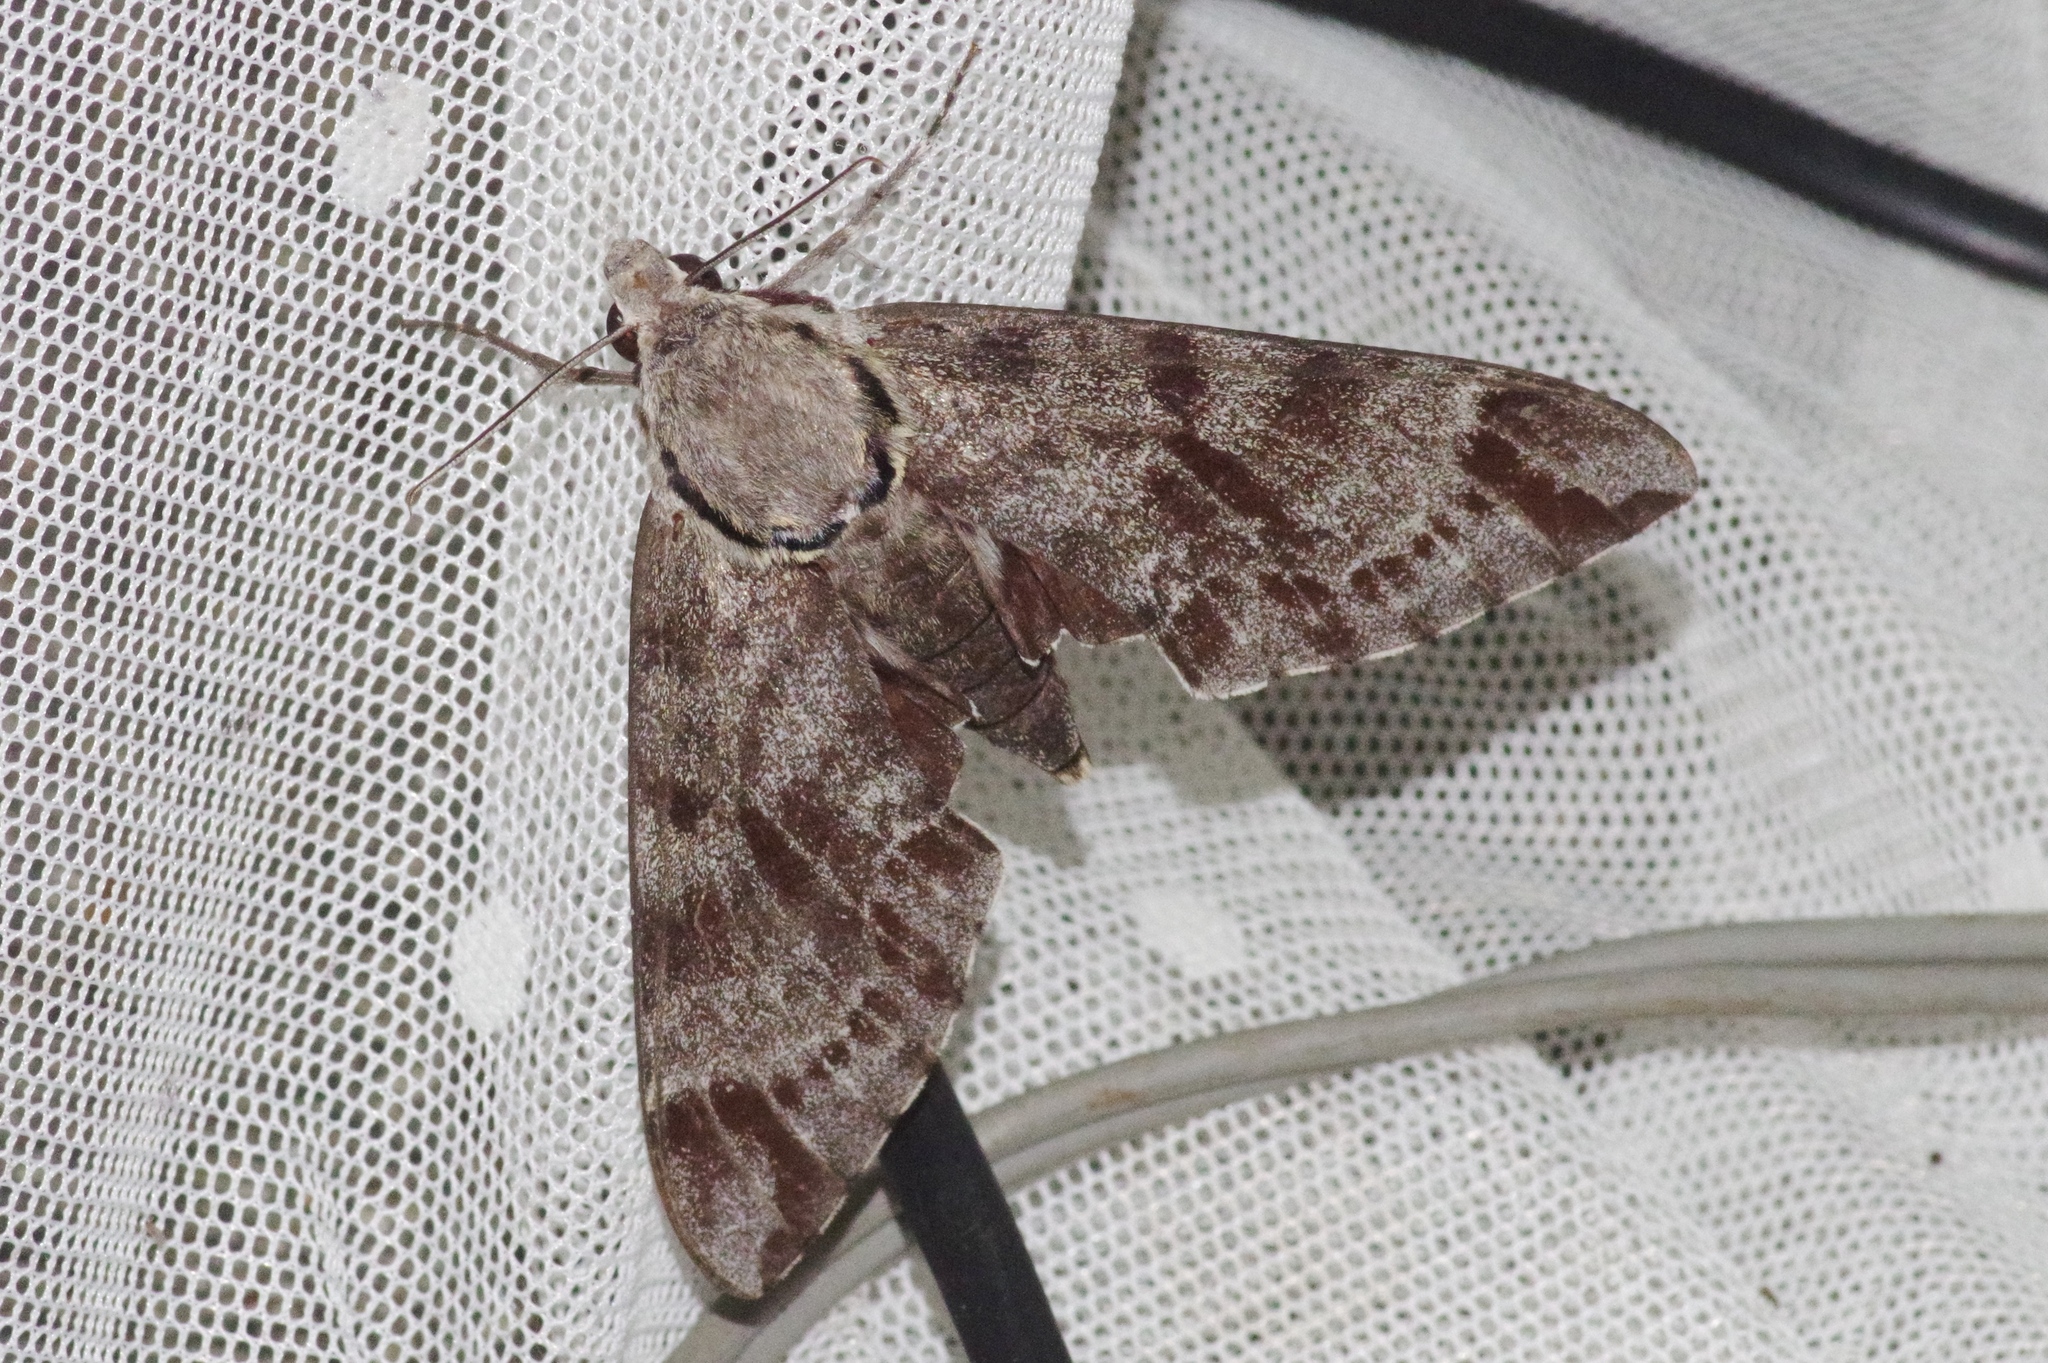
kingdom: Animalia
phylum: Arthropoda
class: Insecta
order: Lepidoptera
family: Sphingidae
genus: Notonagemia
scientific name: Notonagemia analis
